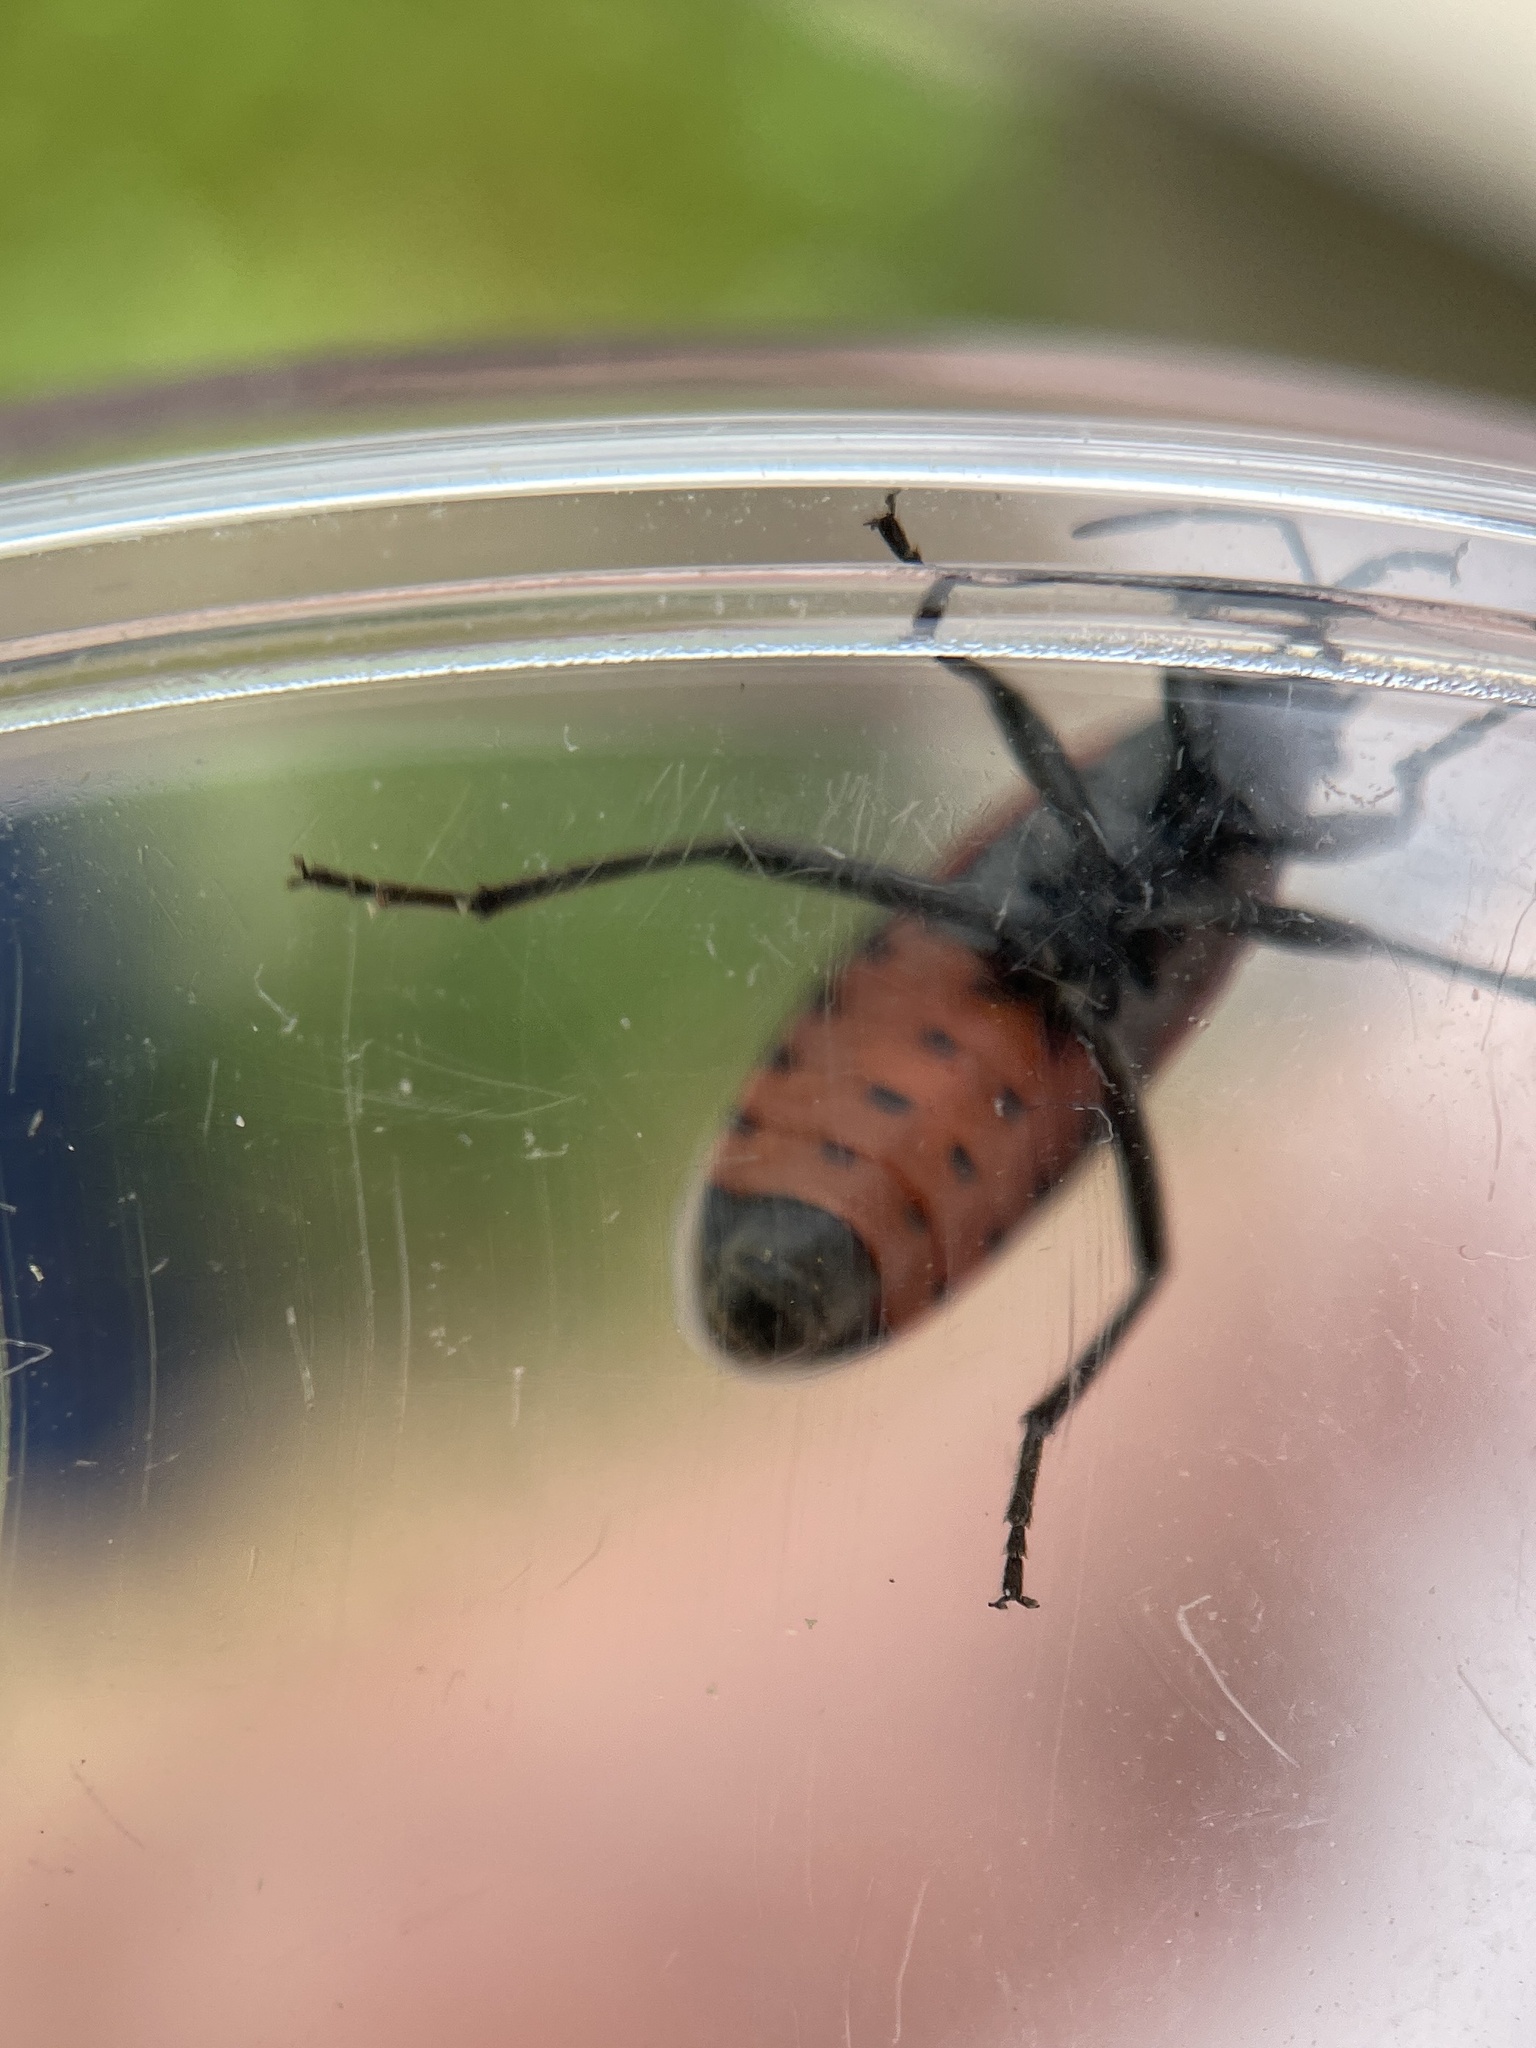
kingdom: Animalia
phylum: Arthropoda
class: Insecta
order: Hemiptera
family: Lygaeidae
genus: Lygaeus
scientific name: Lygaeus kalmii
